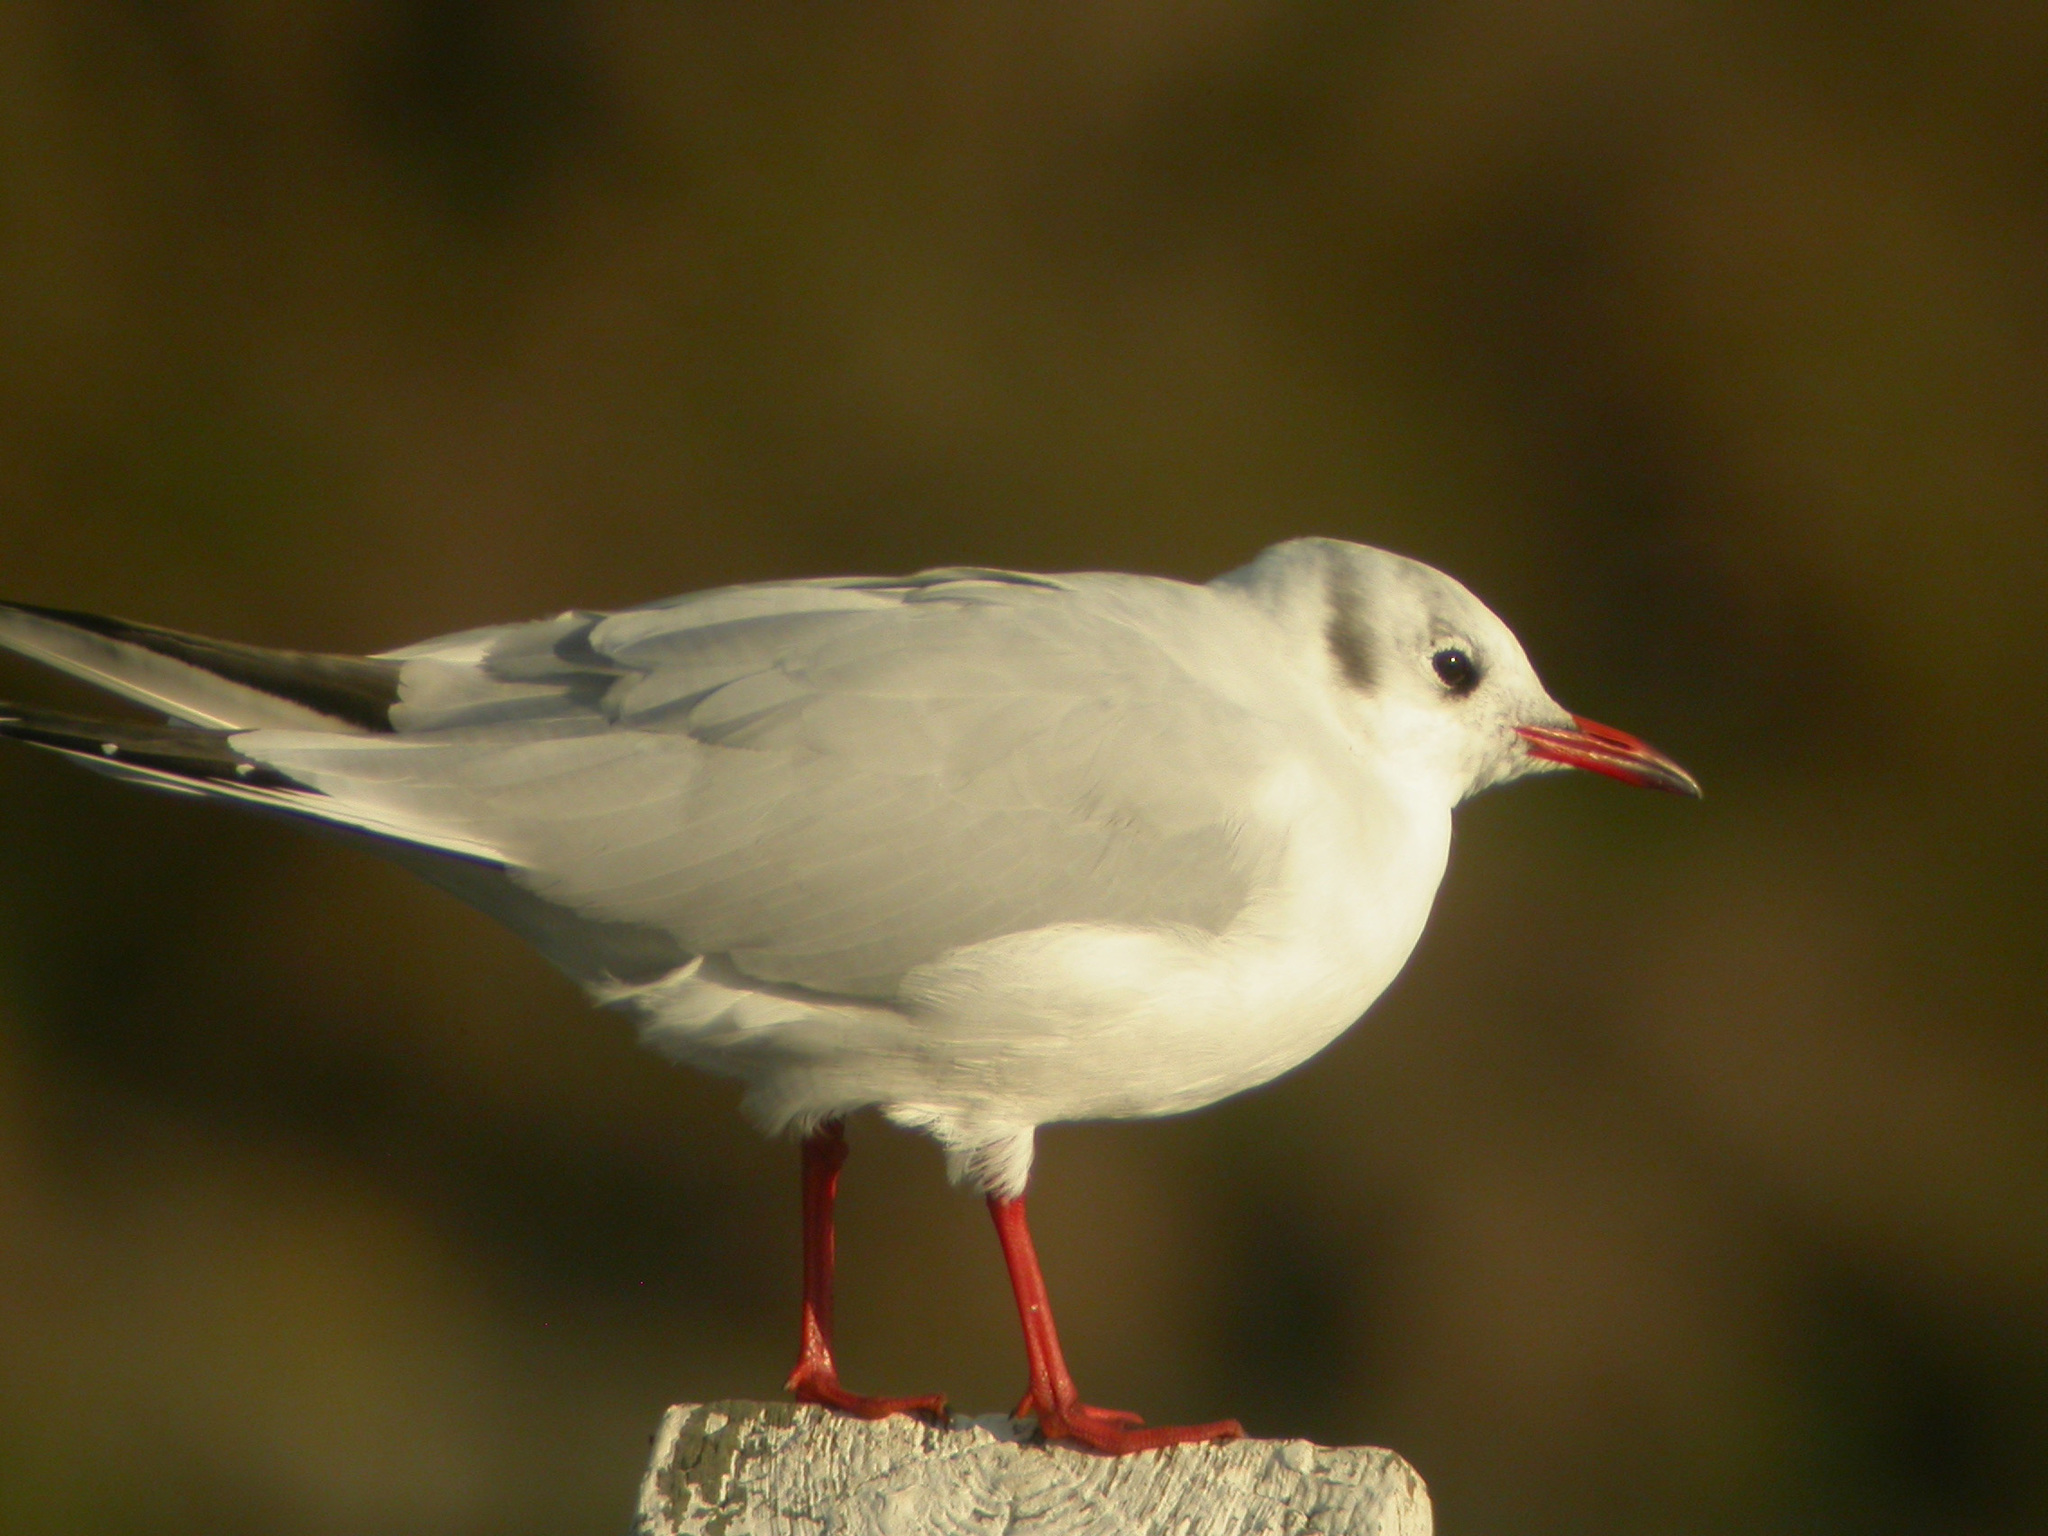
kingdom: Animalia
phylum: Chordata
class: Aves
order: Charadriiformes
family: Laridae
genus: Chroicocephalus
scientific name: Chroicocephalus ridibundus
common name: Black-headed gull
